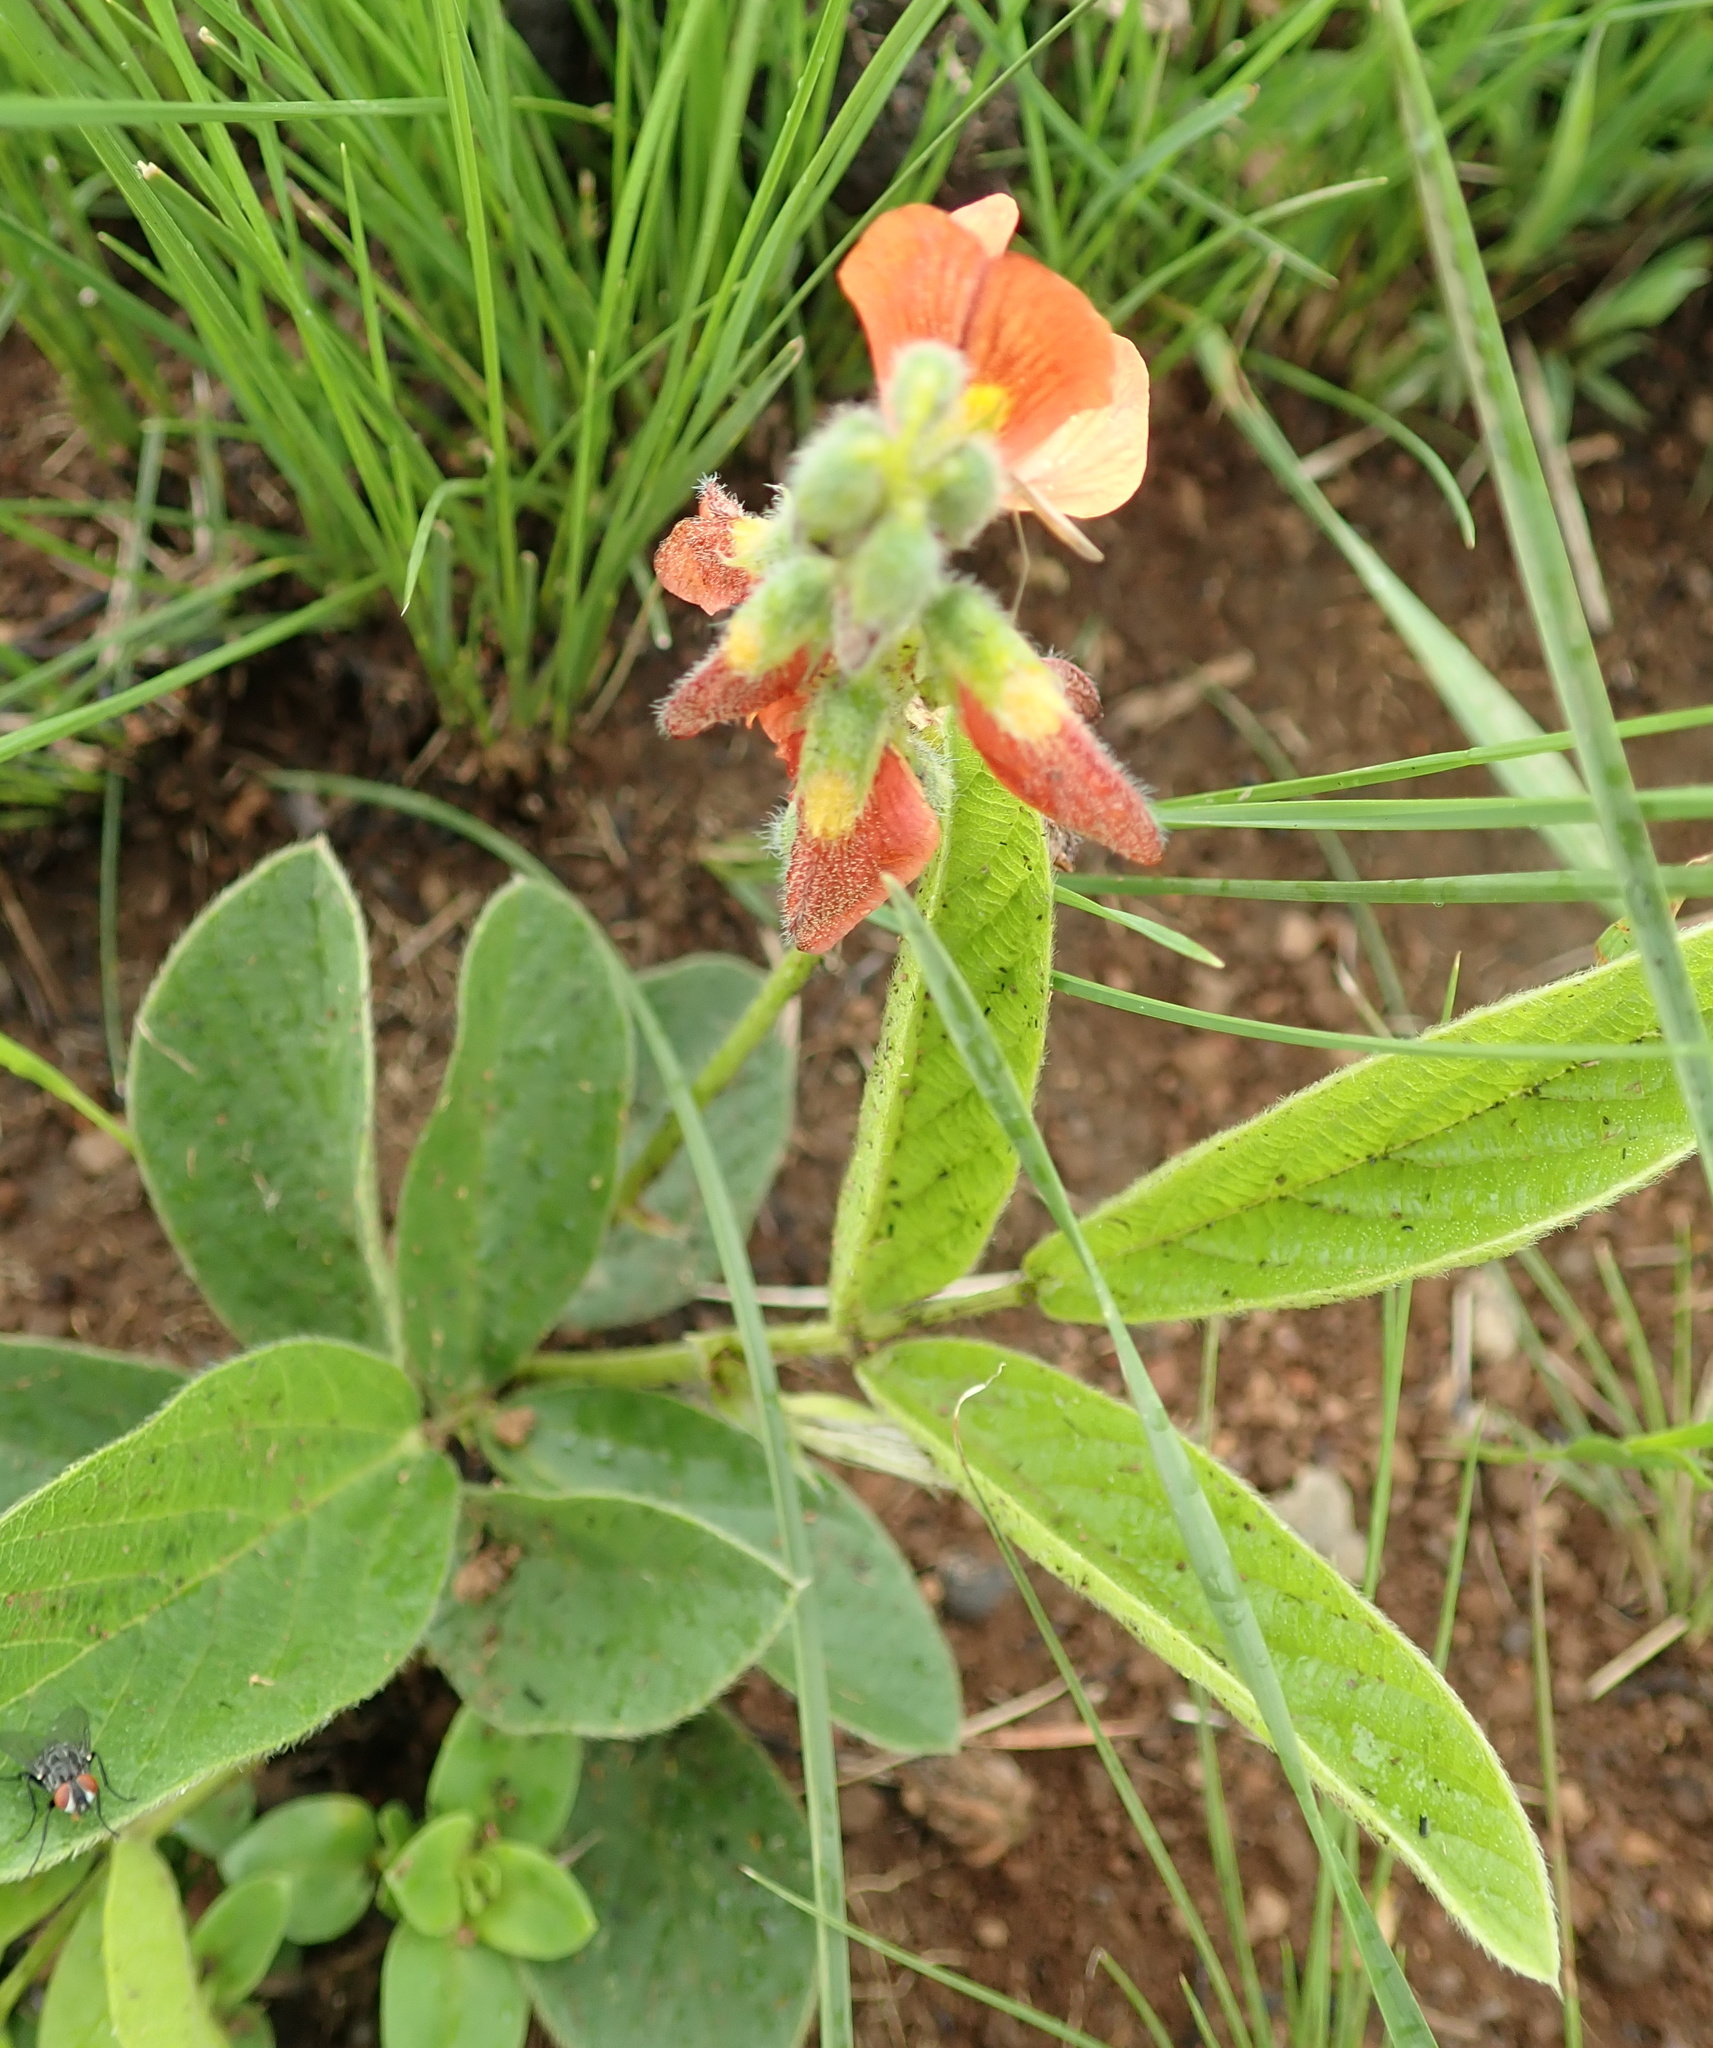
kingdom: Plantae
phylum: Tracheophyta
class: Magnoliopsida
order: Fabales
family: Fabaceae
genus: Eriosema
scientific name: Eriosema distinctum
